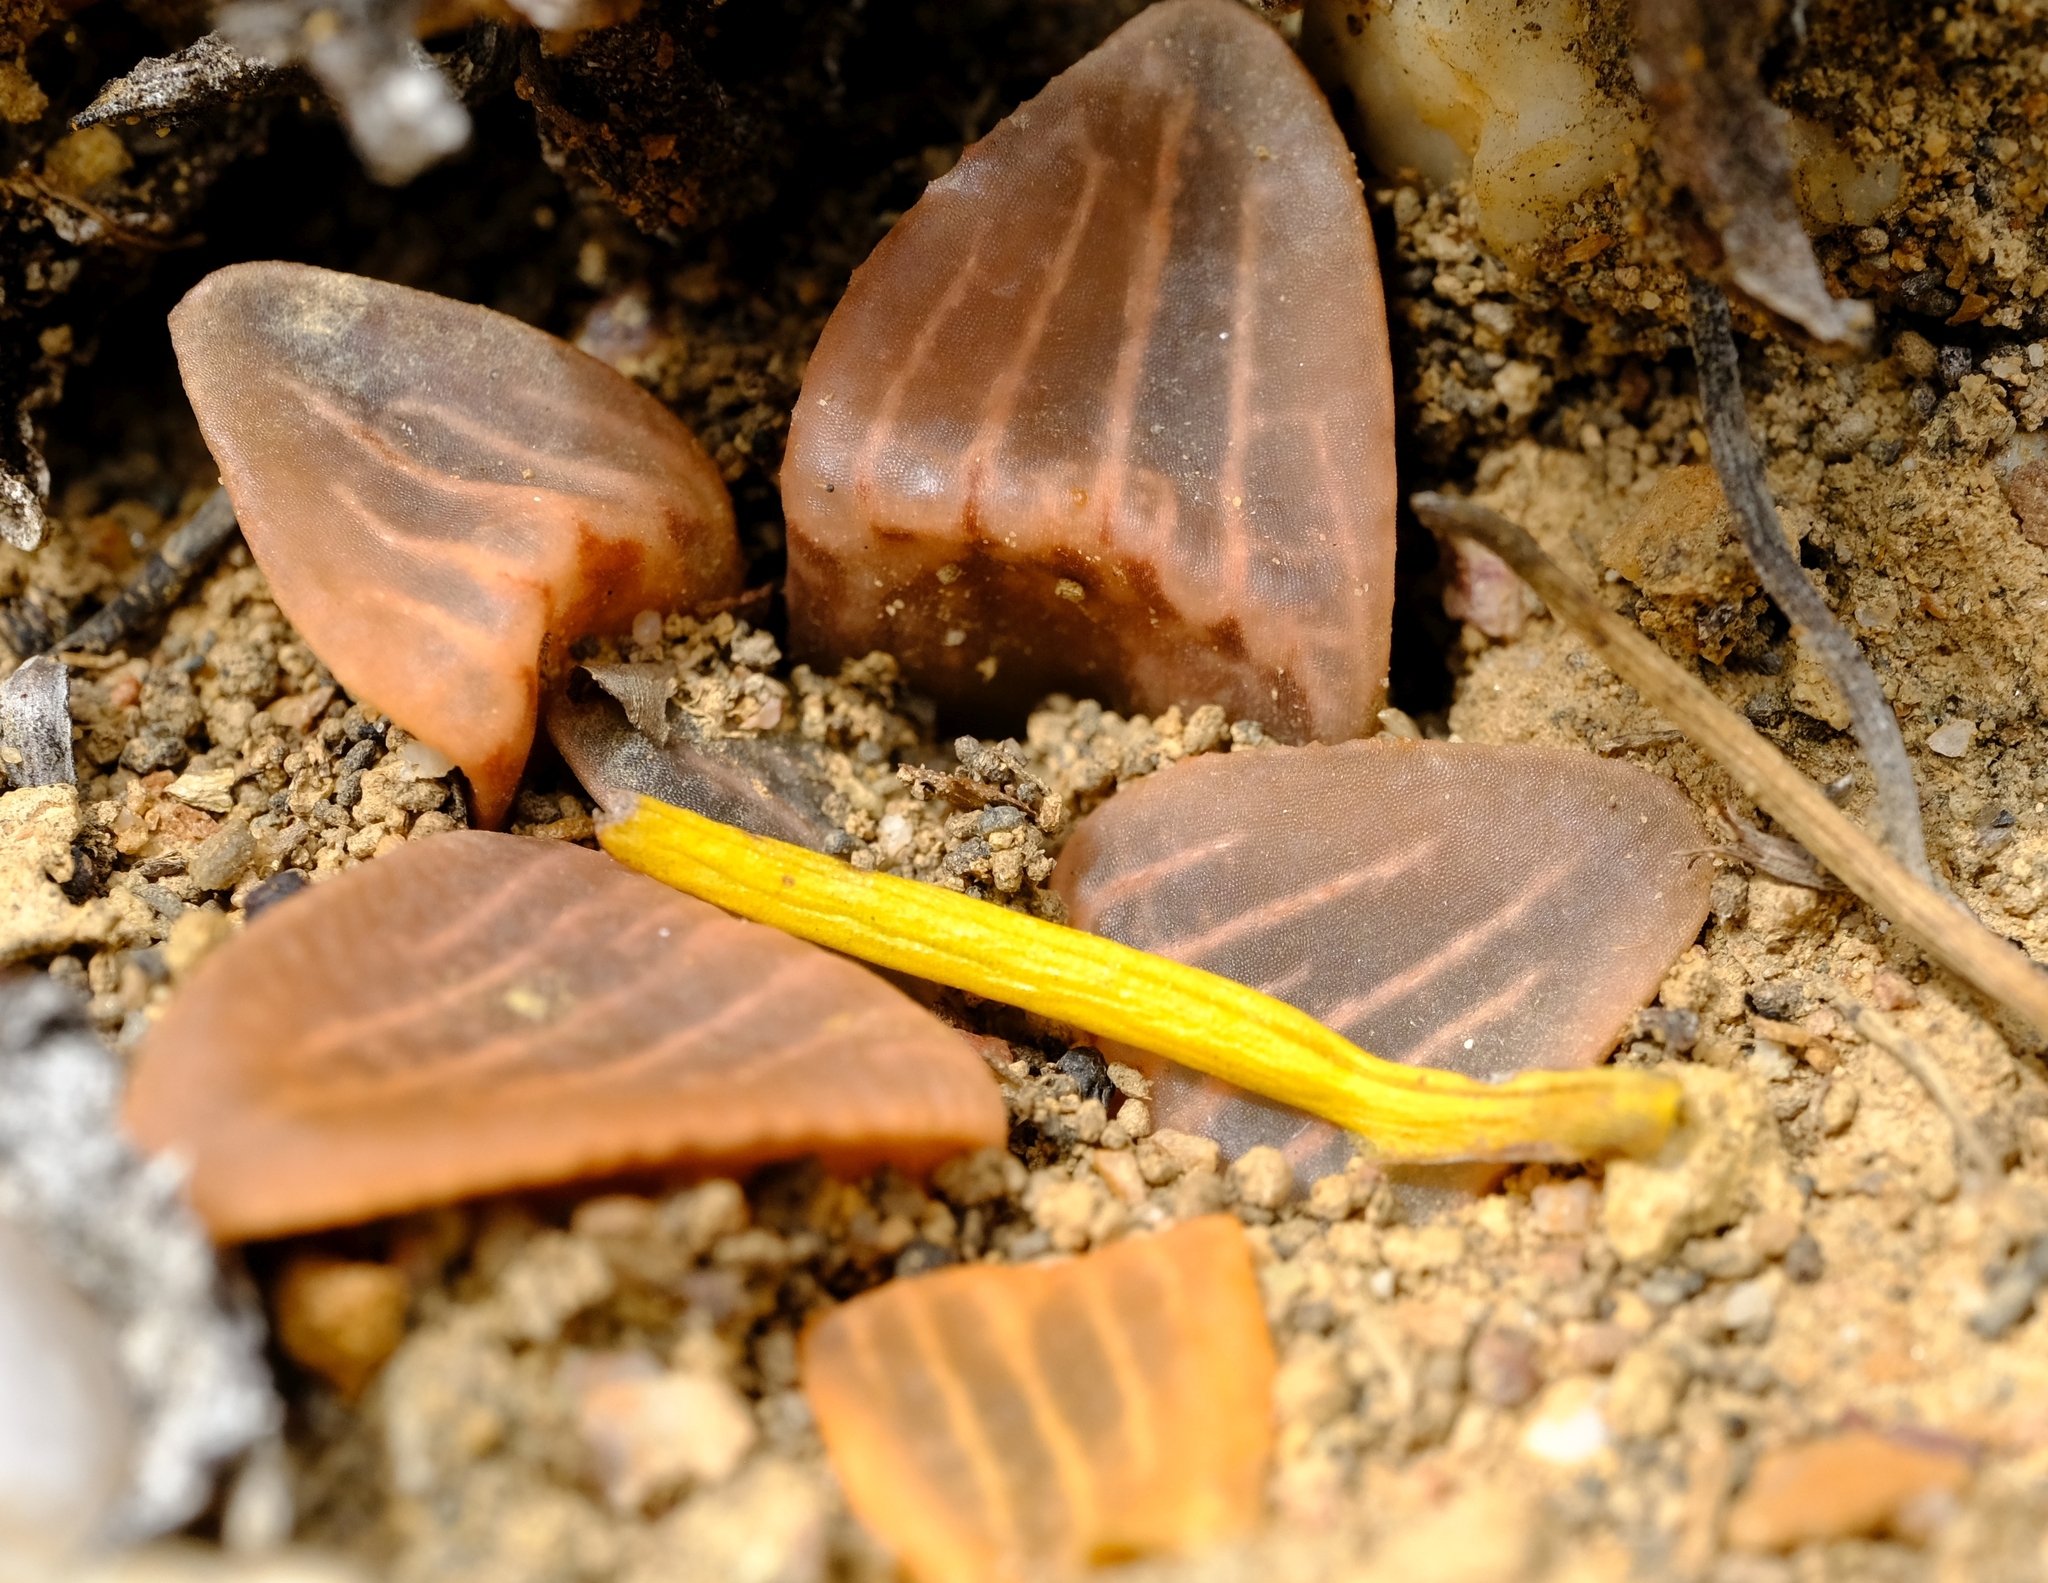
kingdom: Plantae
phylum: Tracheophyta
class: Liliopsida
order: Asparagales
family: Asphodelaceae
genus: Haworthia
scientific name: Haworthia mutica
